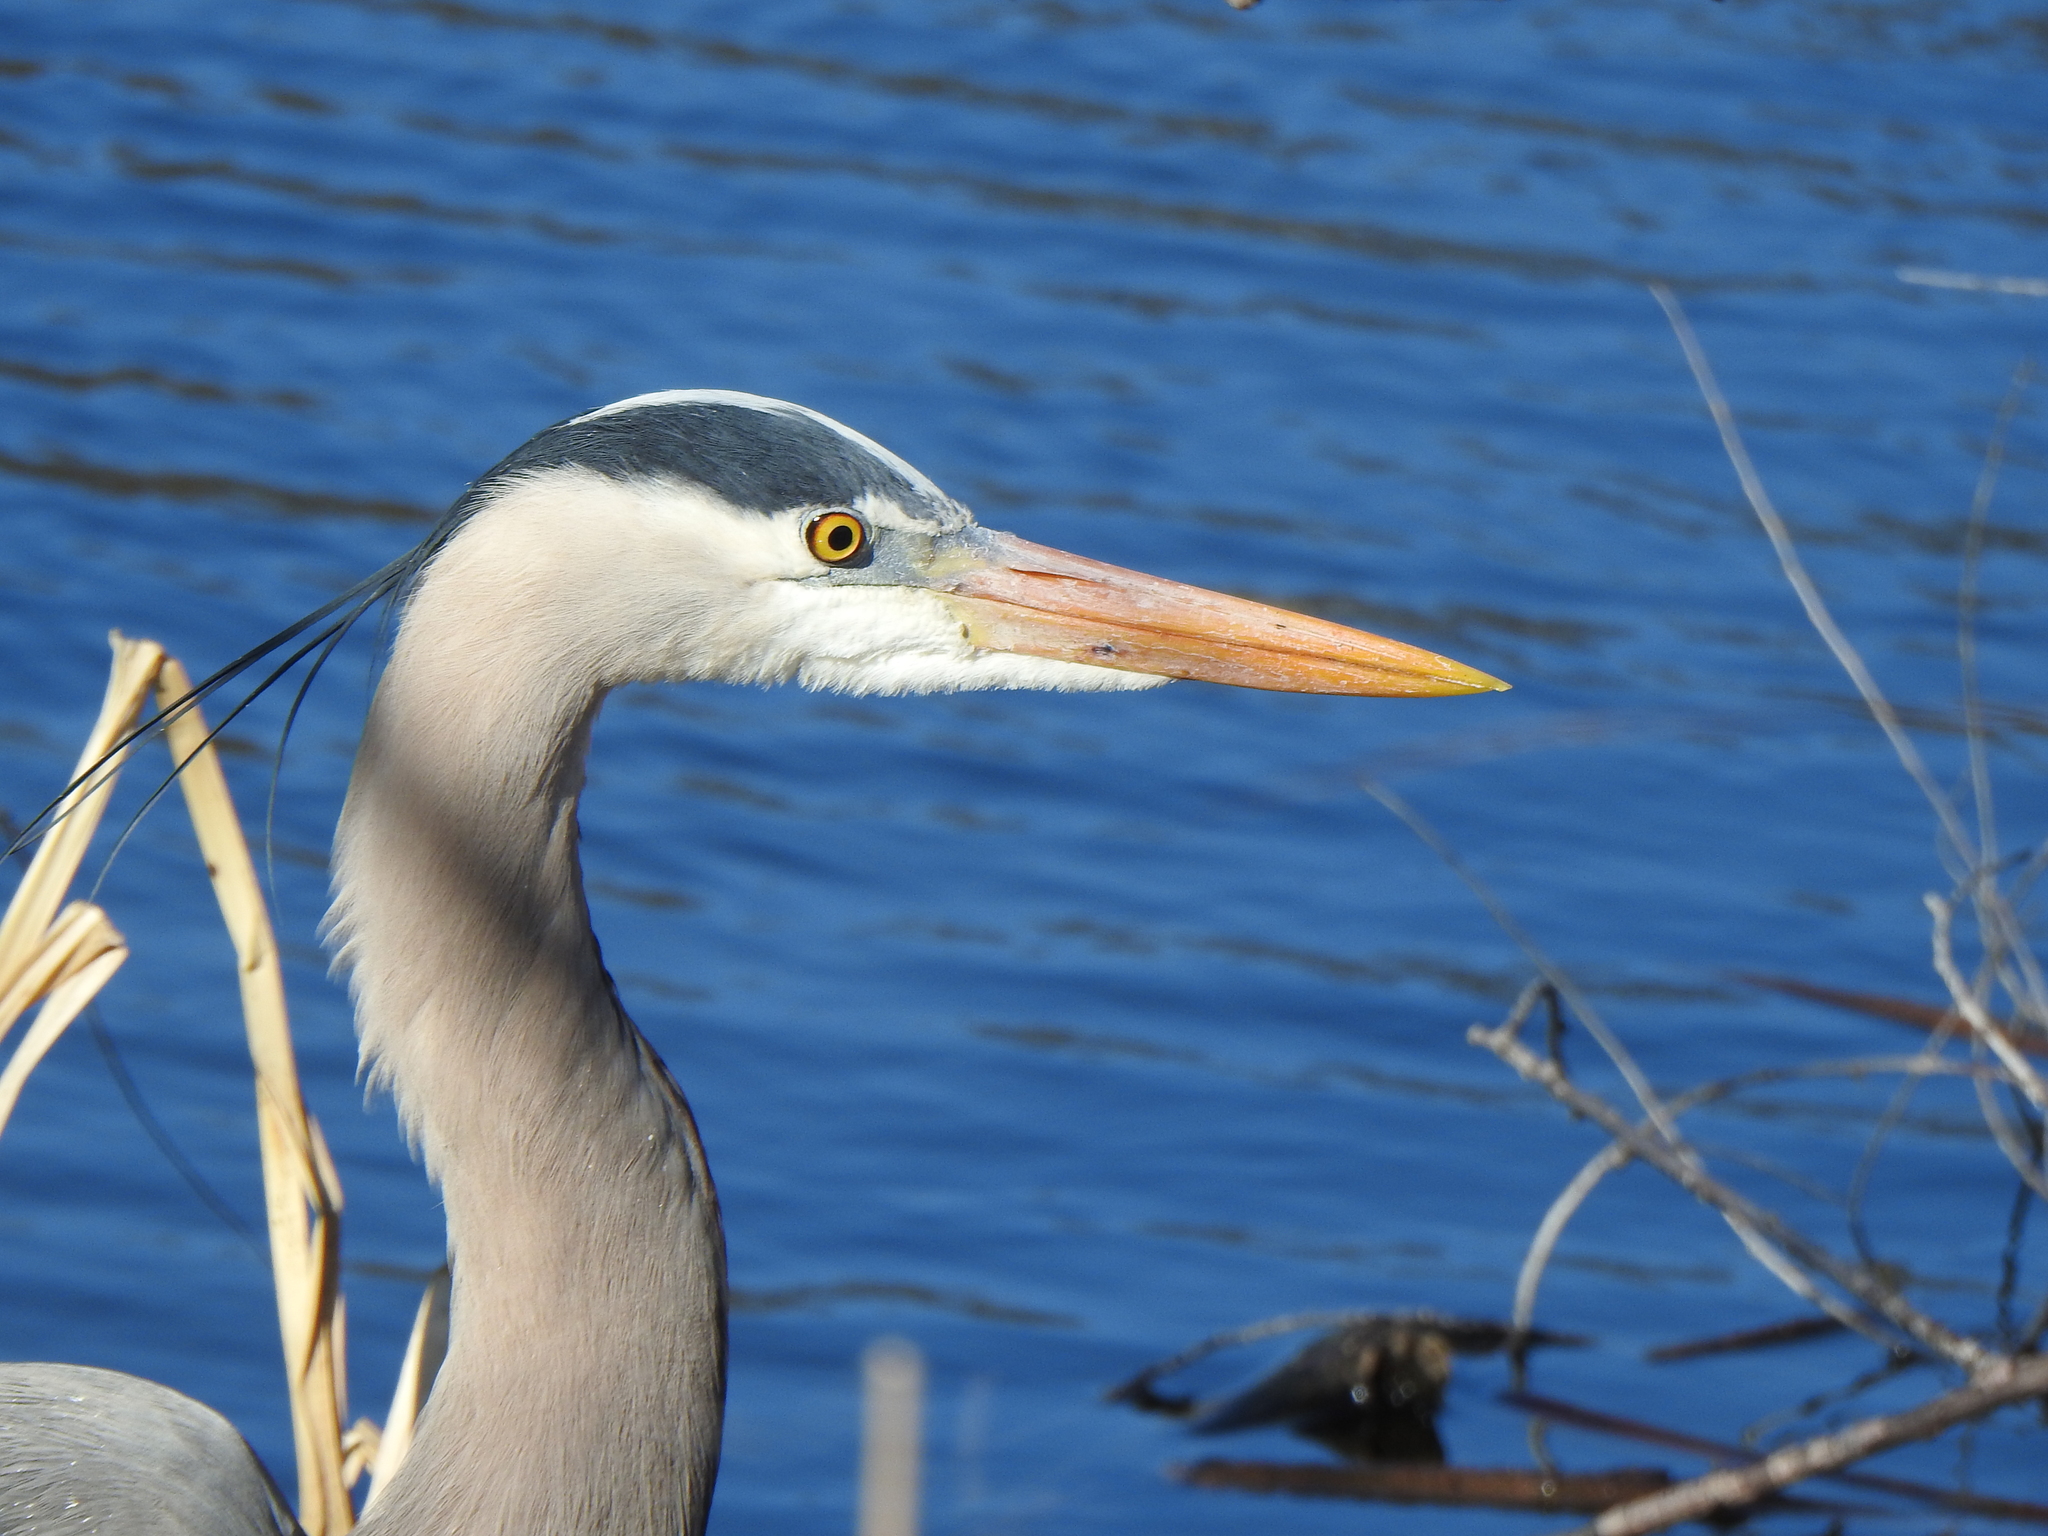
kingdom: Animalia
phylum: Chordata
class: Aves
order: Pelecaniformes
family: Ardeidae
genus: Ardea
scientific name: Ardea herodias
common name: Great blue heron
